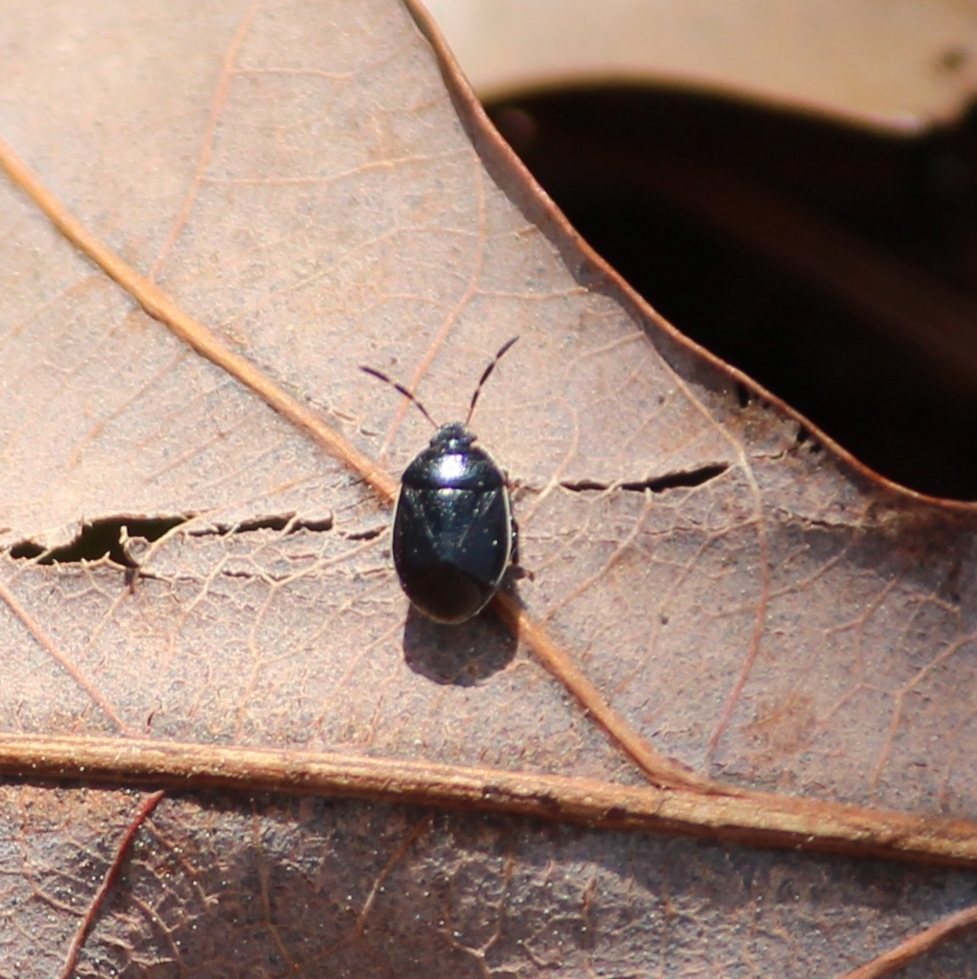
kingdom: Animalia
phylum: Arthropoda
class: Insecta
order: Hemiptera
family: Cydnidae
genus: Sehirus
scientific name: Sehirus cinctus
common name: White-margined burrower bug
